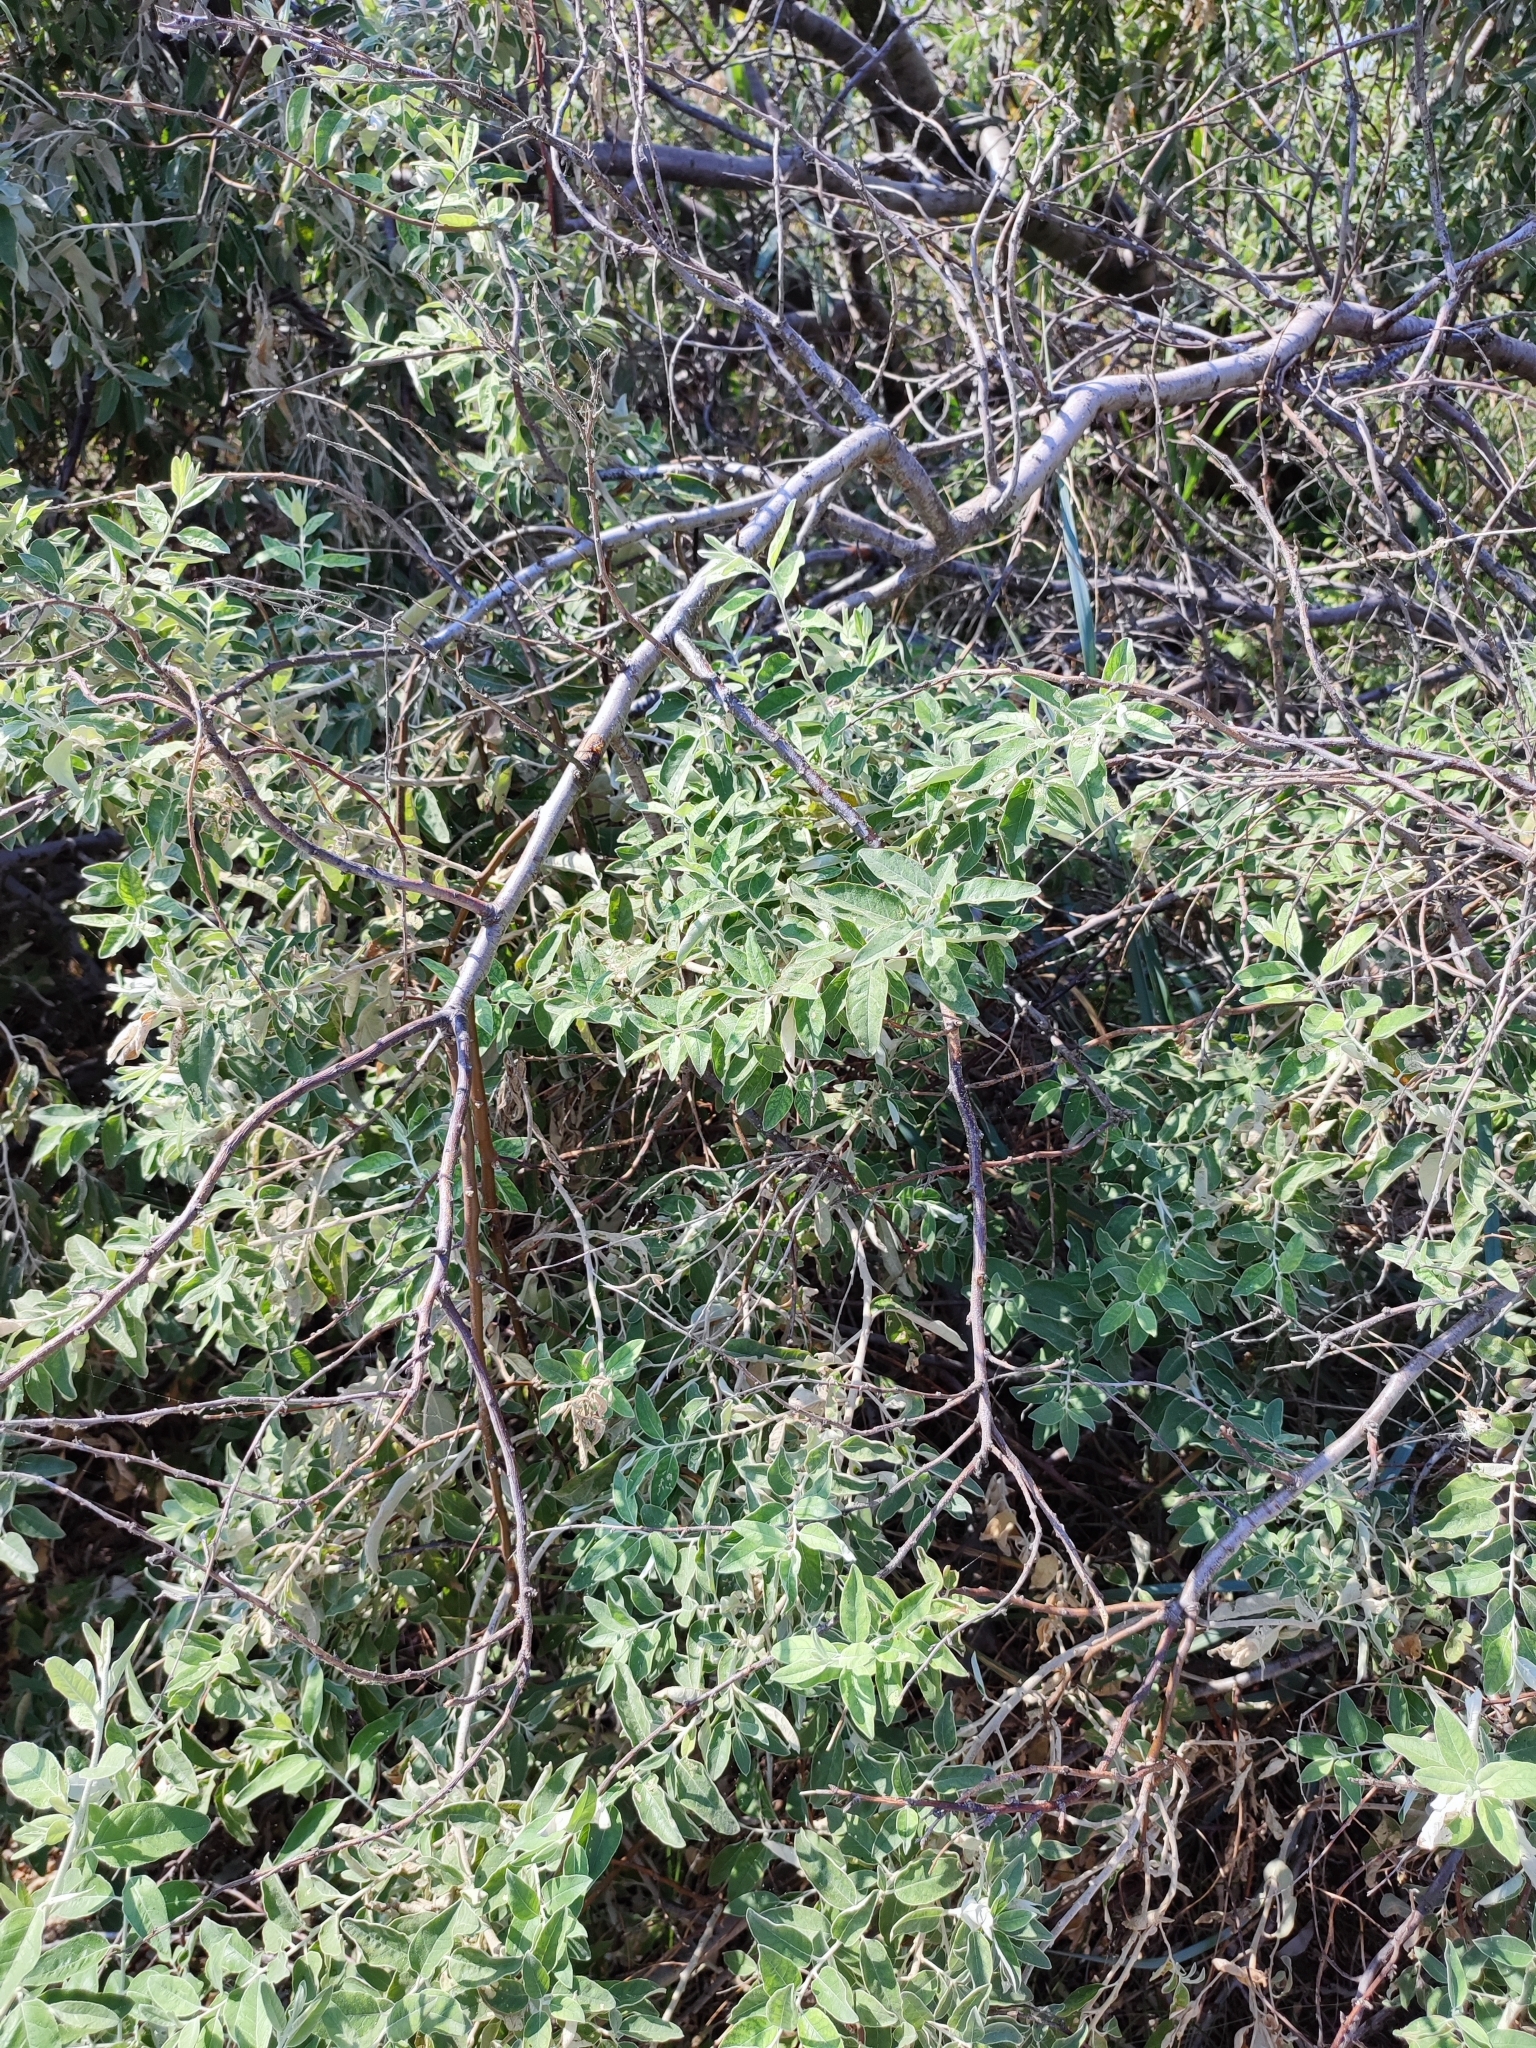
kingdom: Plantae
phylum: Tracheophyta
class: Magnoliopsida
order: Rosales
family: Elaeagnaceae
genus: Elaeagnus
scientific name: Elaeagnus angustifolia
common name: Russian olive
